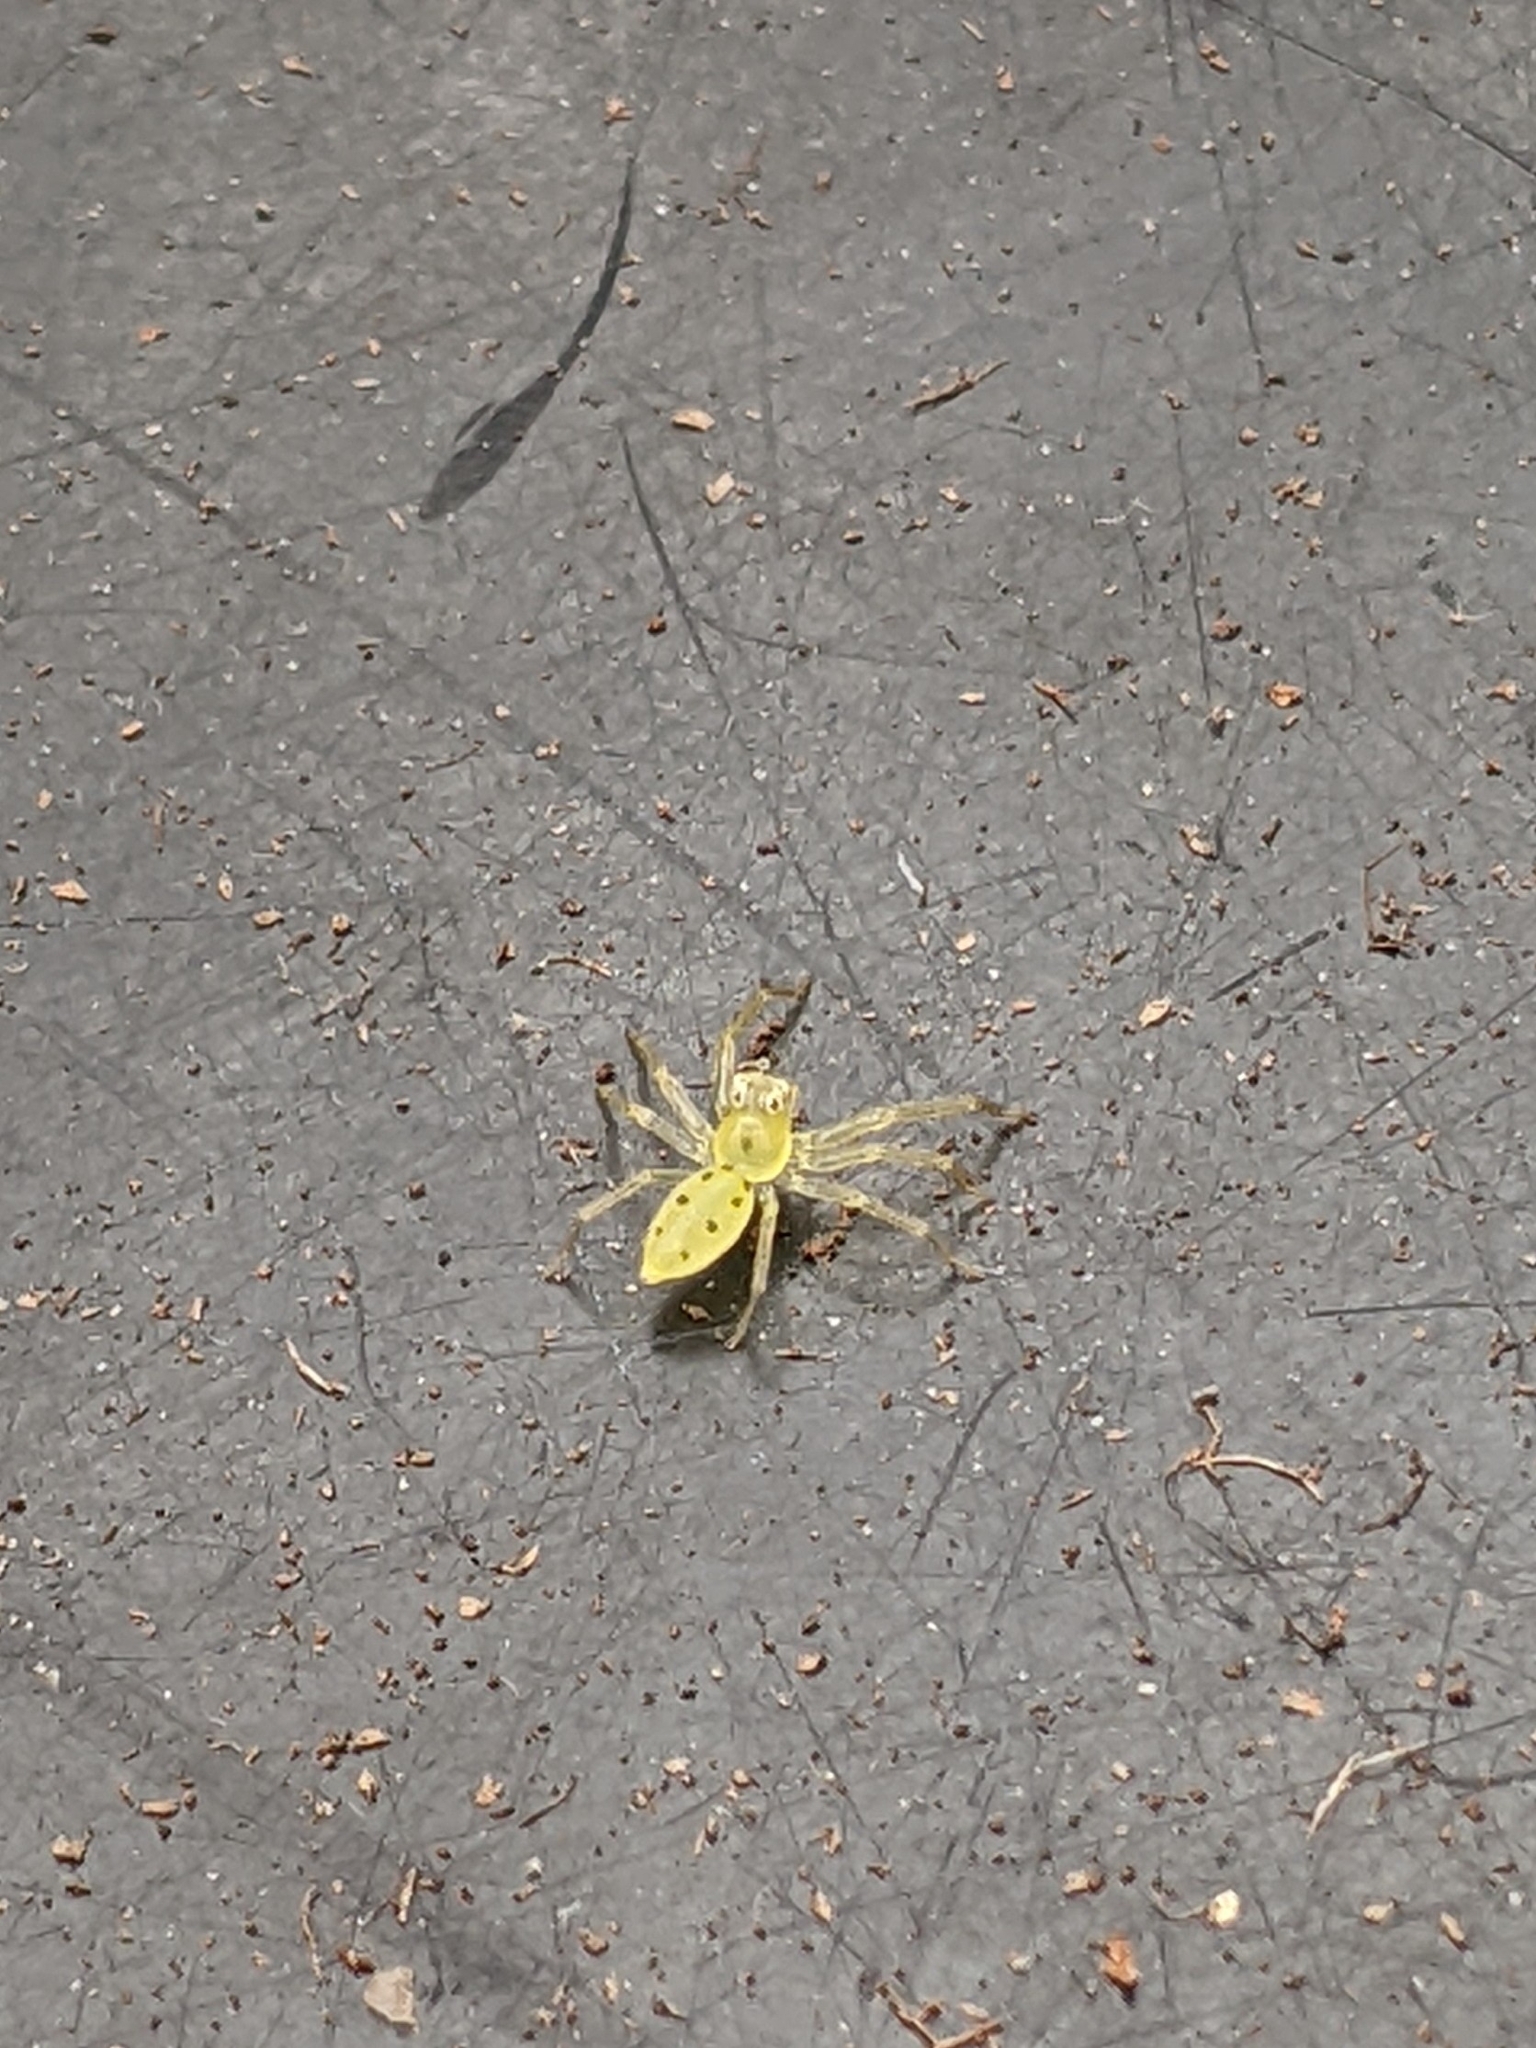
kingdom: Animalia
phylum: Arthropoda
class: Arachnida
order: Araneae
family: Salticidae
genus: Lyssomanes
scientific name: Lyssomanes viridis
